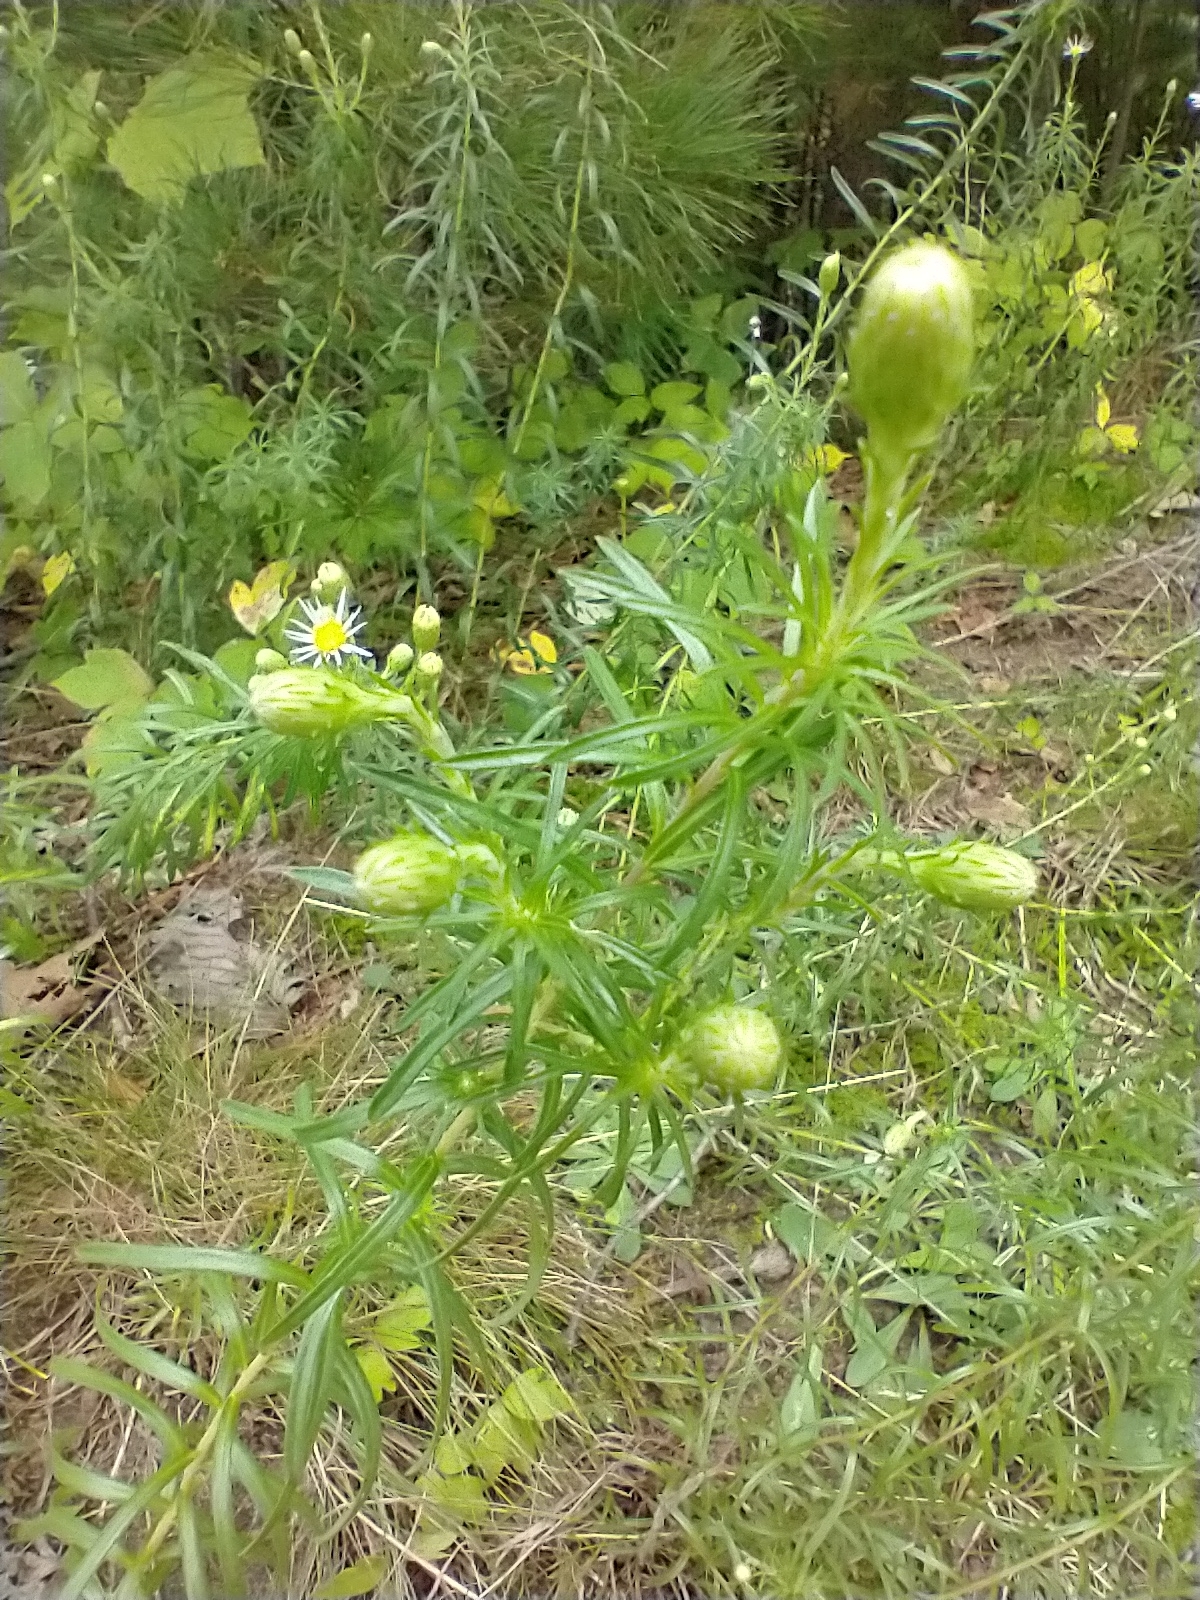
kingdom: Plantae
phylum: Tracheophyta
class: Magnoliopsida
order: Asterales
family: Asteraceae
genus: Ionactis
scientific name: Ionactis linariifolia
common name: Flax-leaf aster
